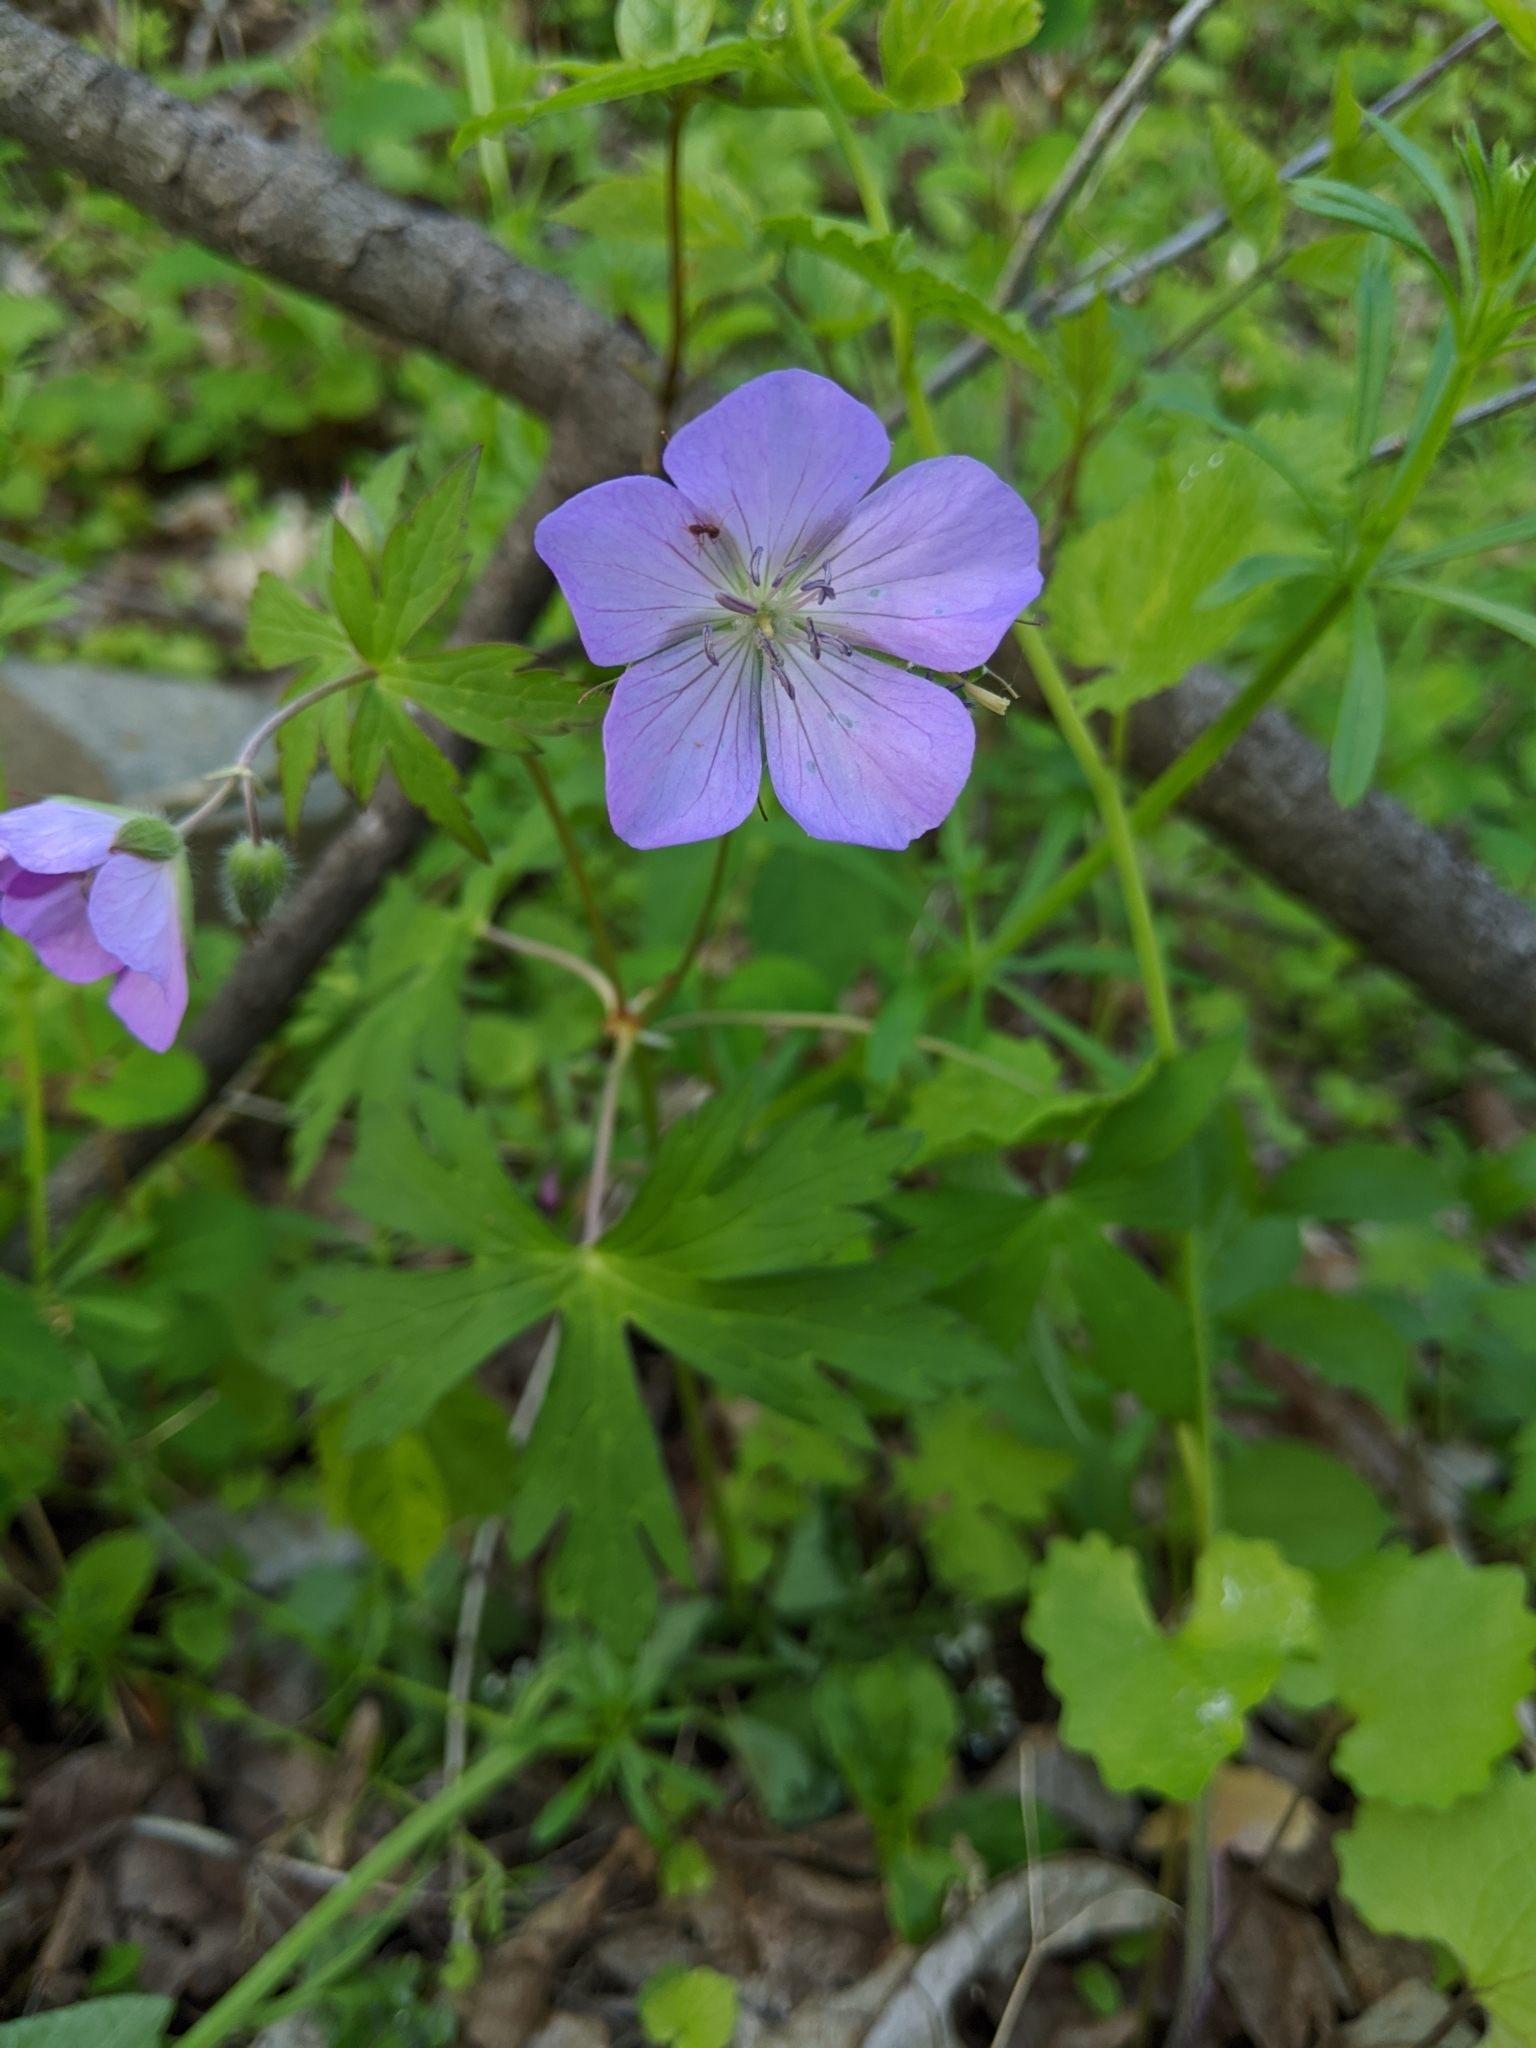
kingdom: Plantae
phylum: Tracheophyta
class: Magnoliopsida
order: Geraniales
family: Geraniaceae
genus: Geranium
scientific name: Geranium maculatum
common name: Spotted geranium
